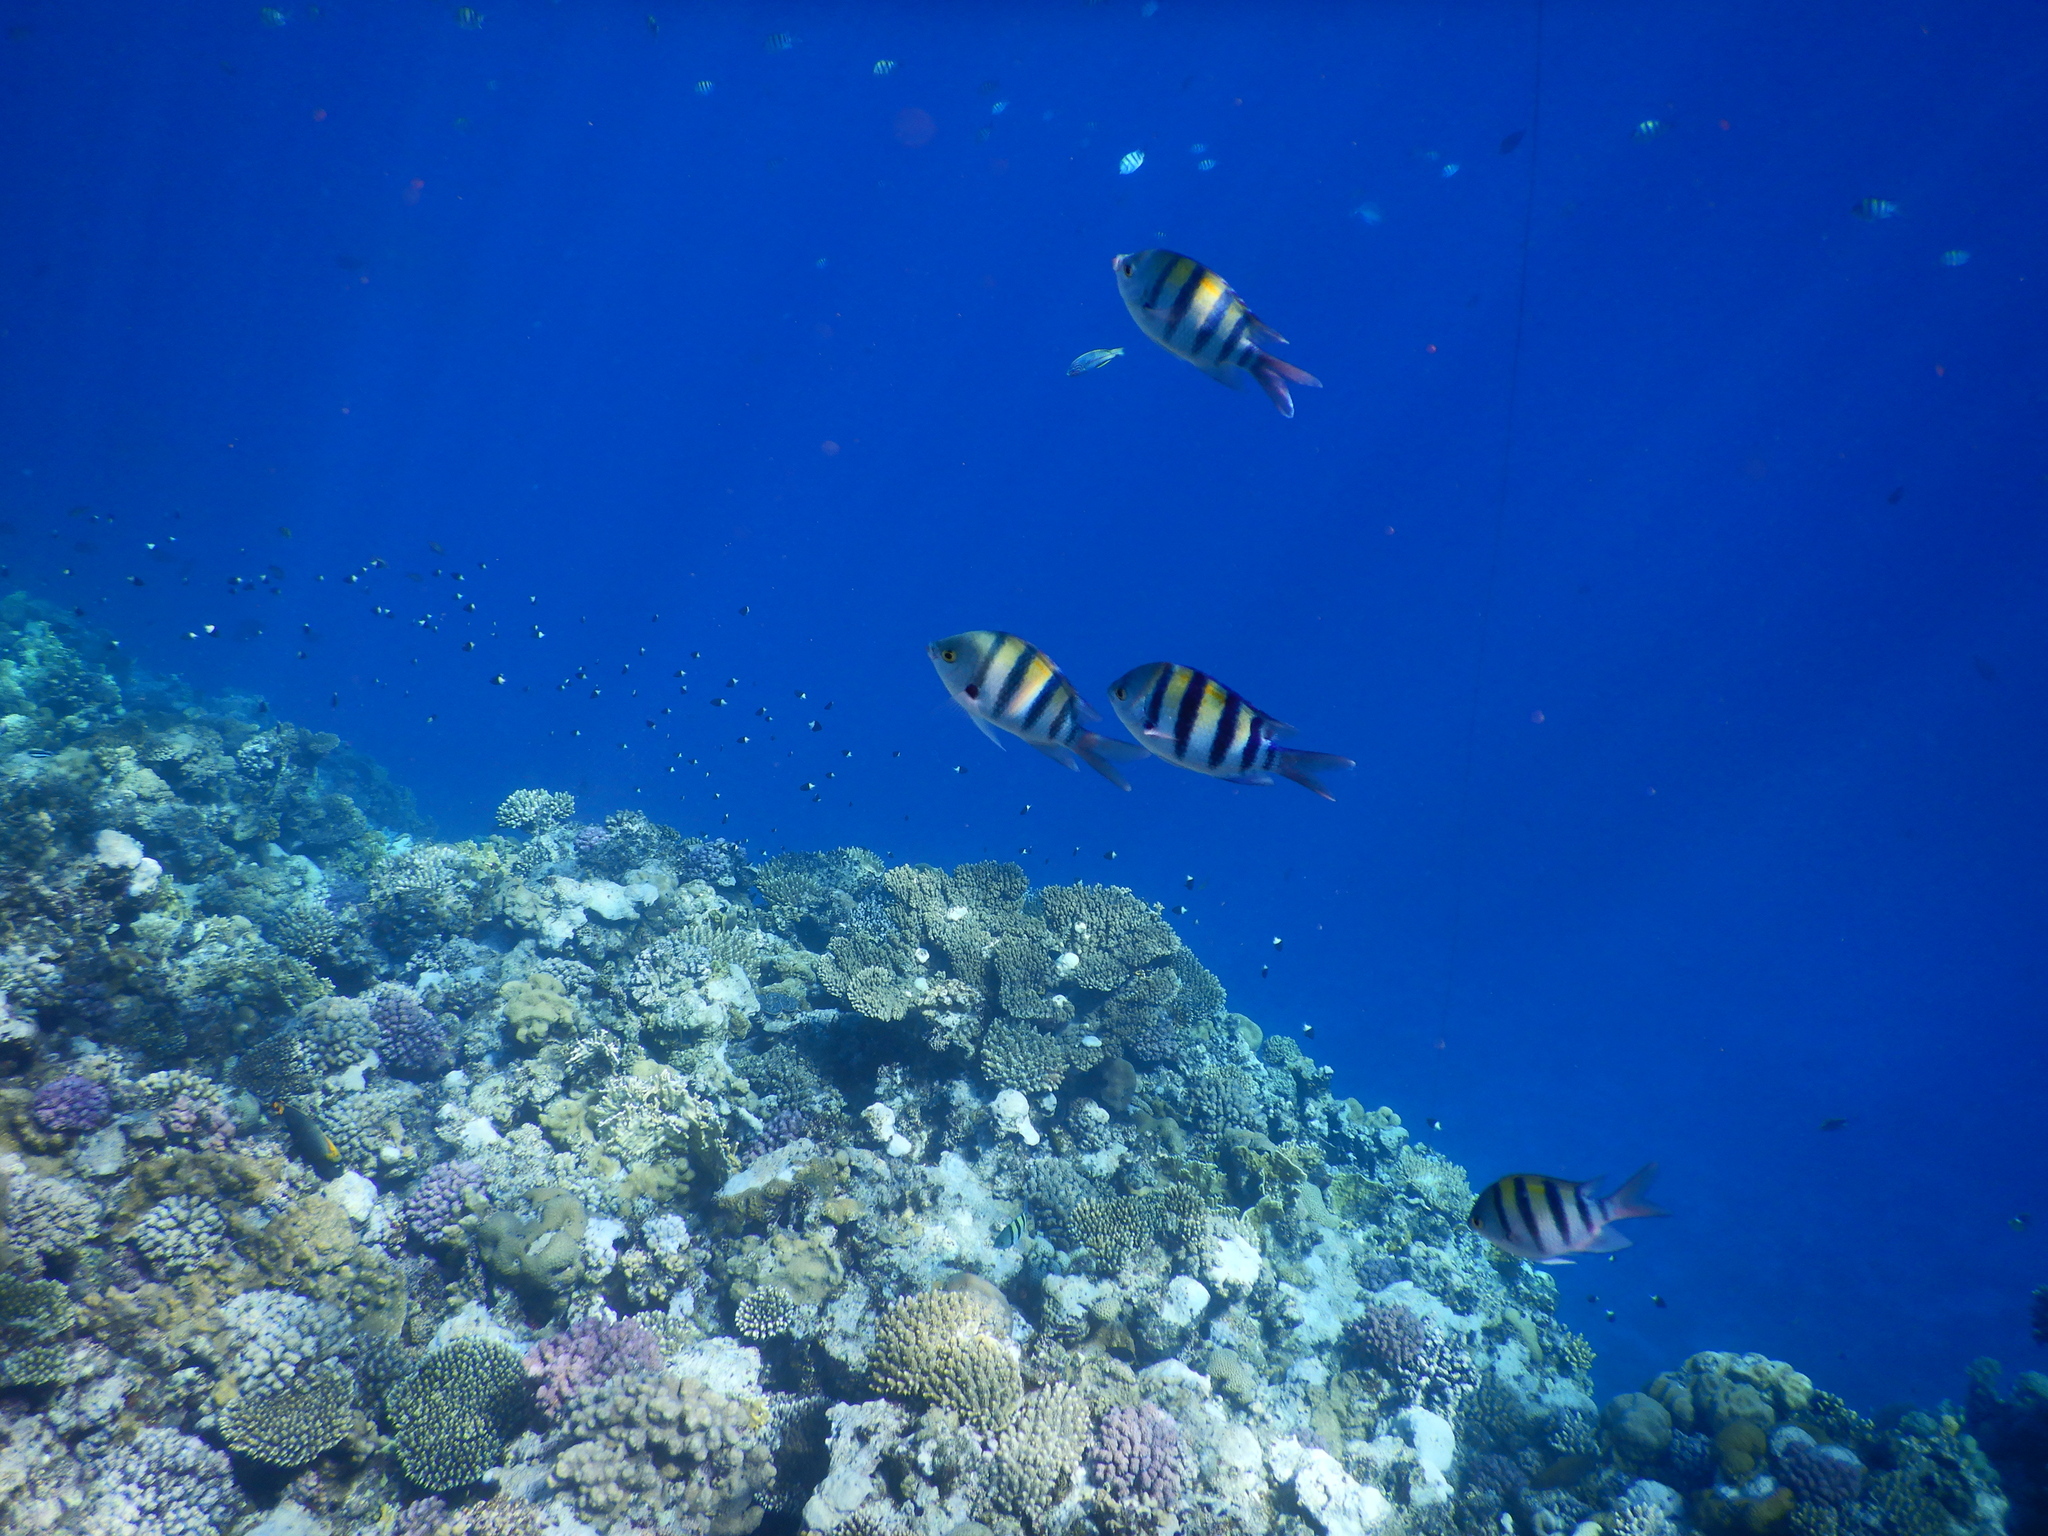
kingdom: Animalia
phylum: Chordata
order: Perciformes
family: Pomacentridae
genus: Abudefduf
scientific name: Abudefduf vaigiensis
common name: Indo-pacific sergeant
